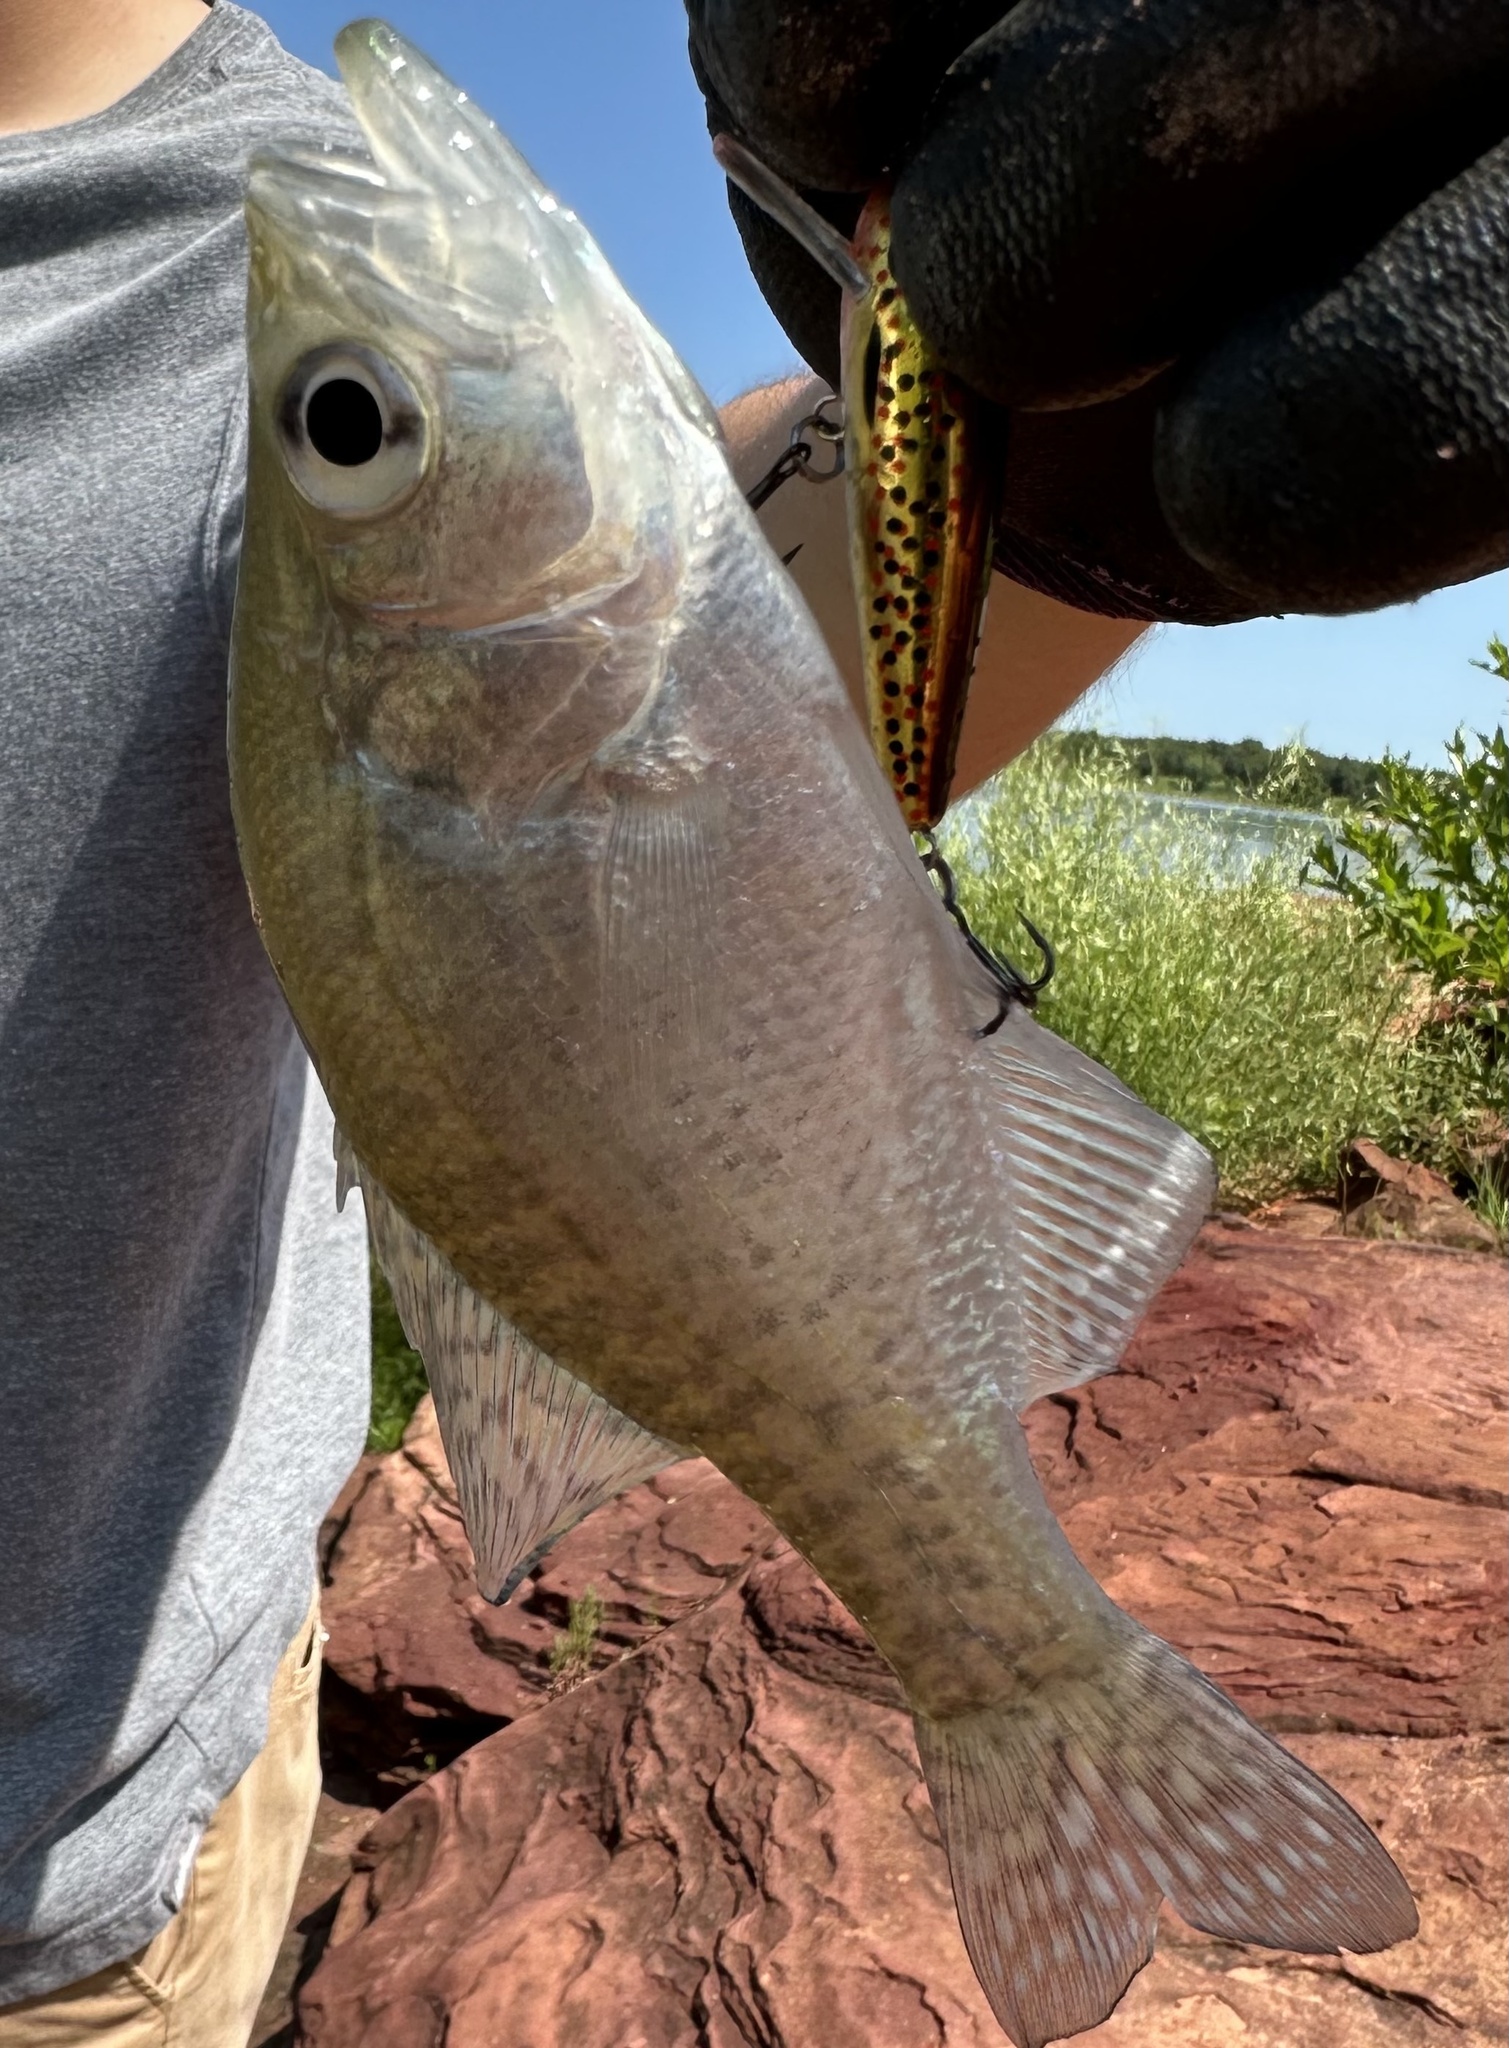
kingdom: Animalia
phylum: Chordata
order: Perciformes
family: Centrarchidae
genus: Pomoxis
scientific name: Pomoxis annularis
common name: White crappie
